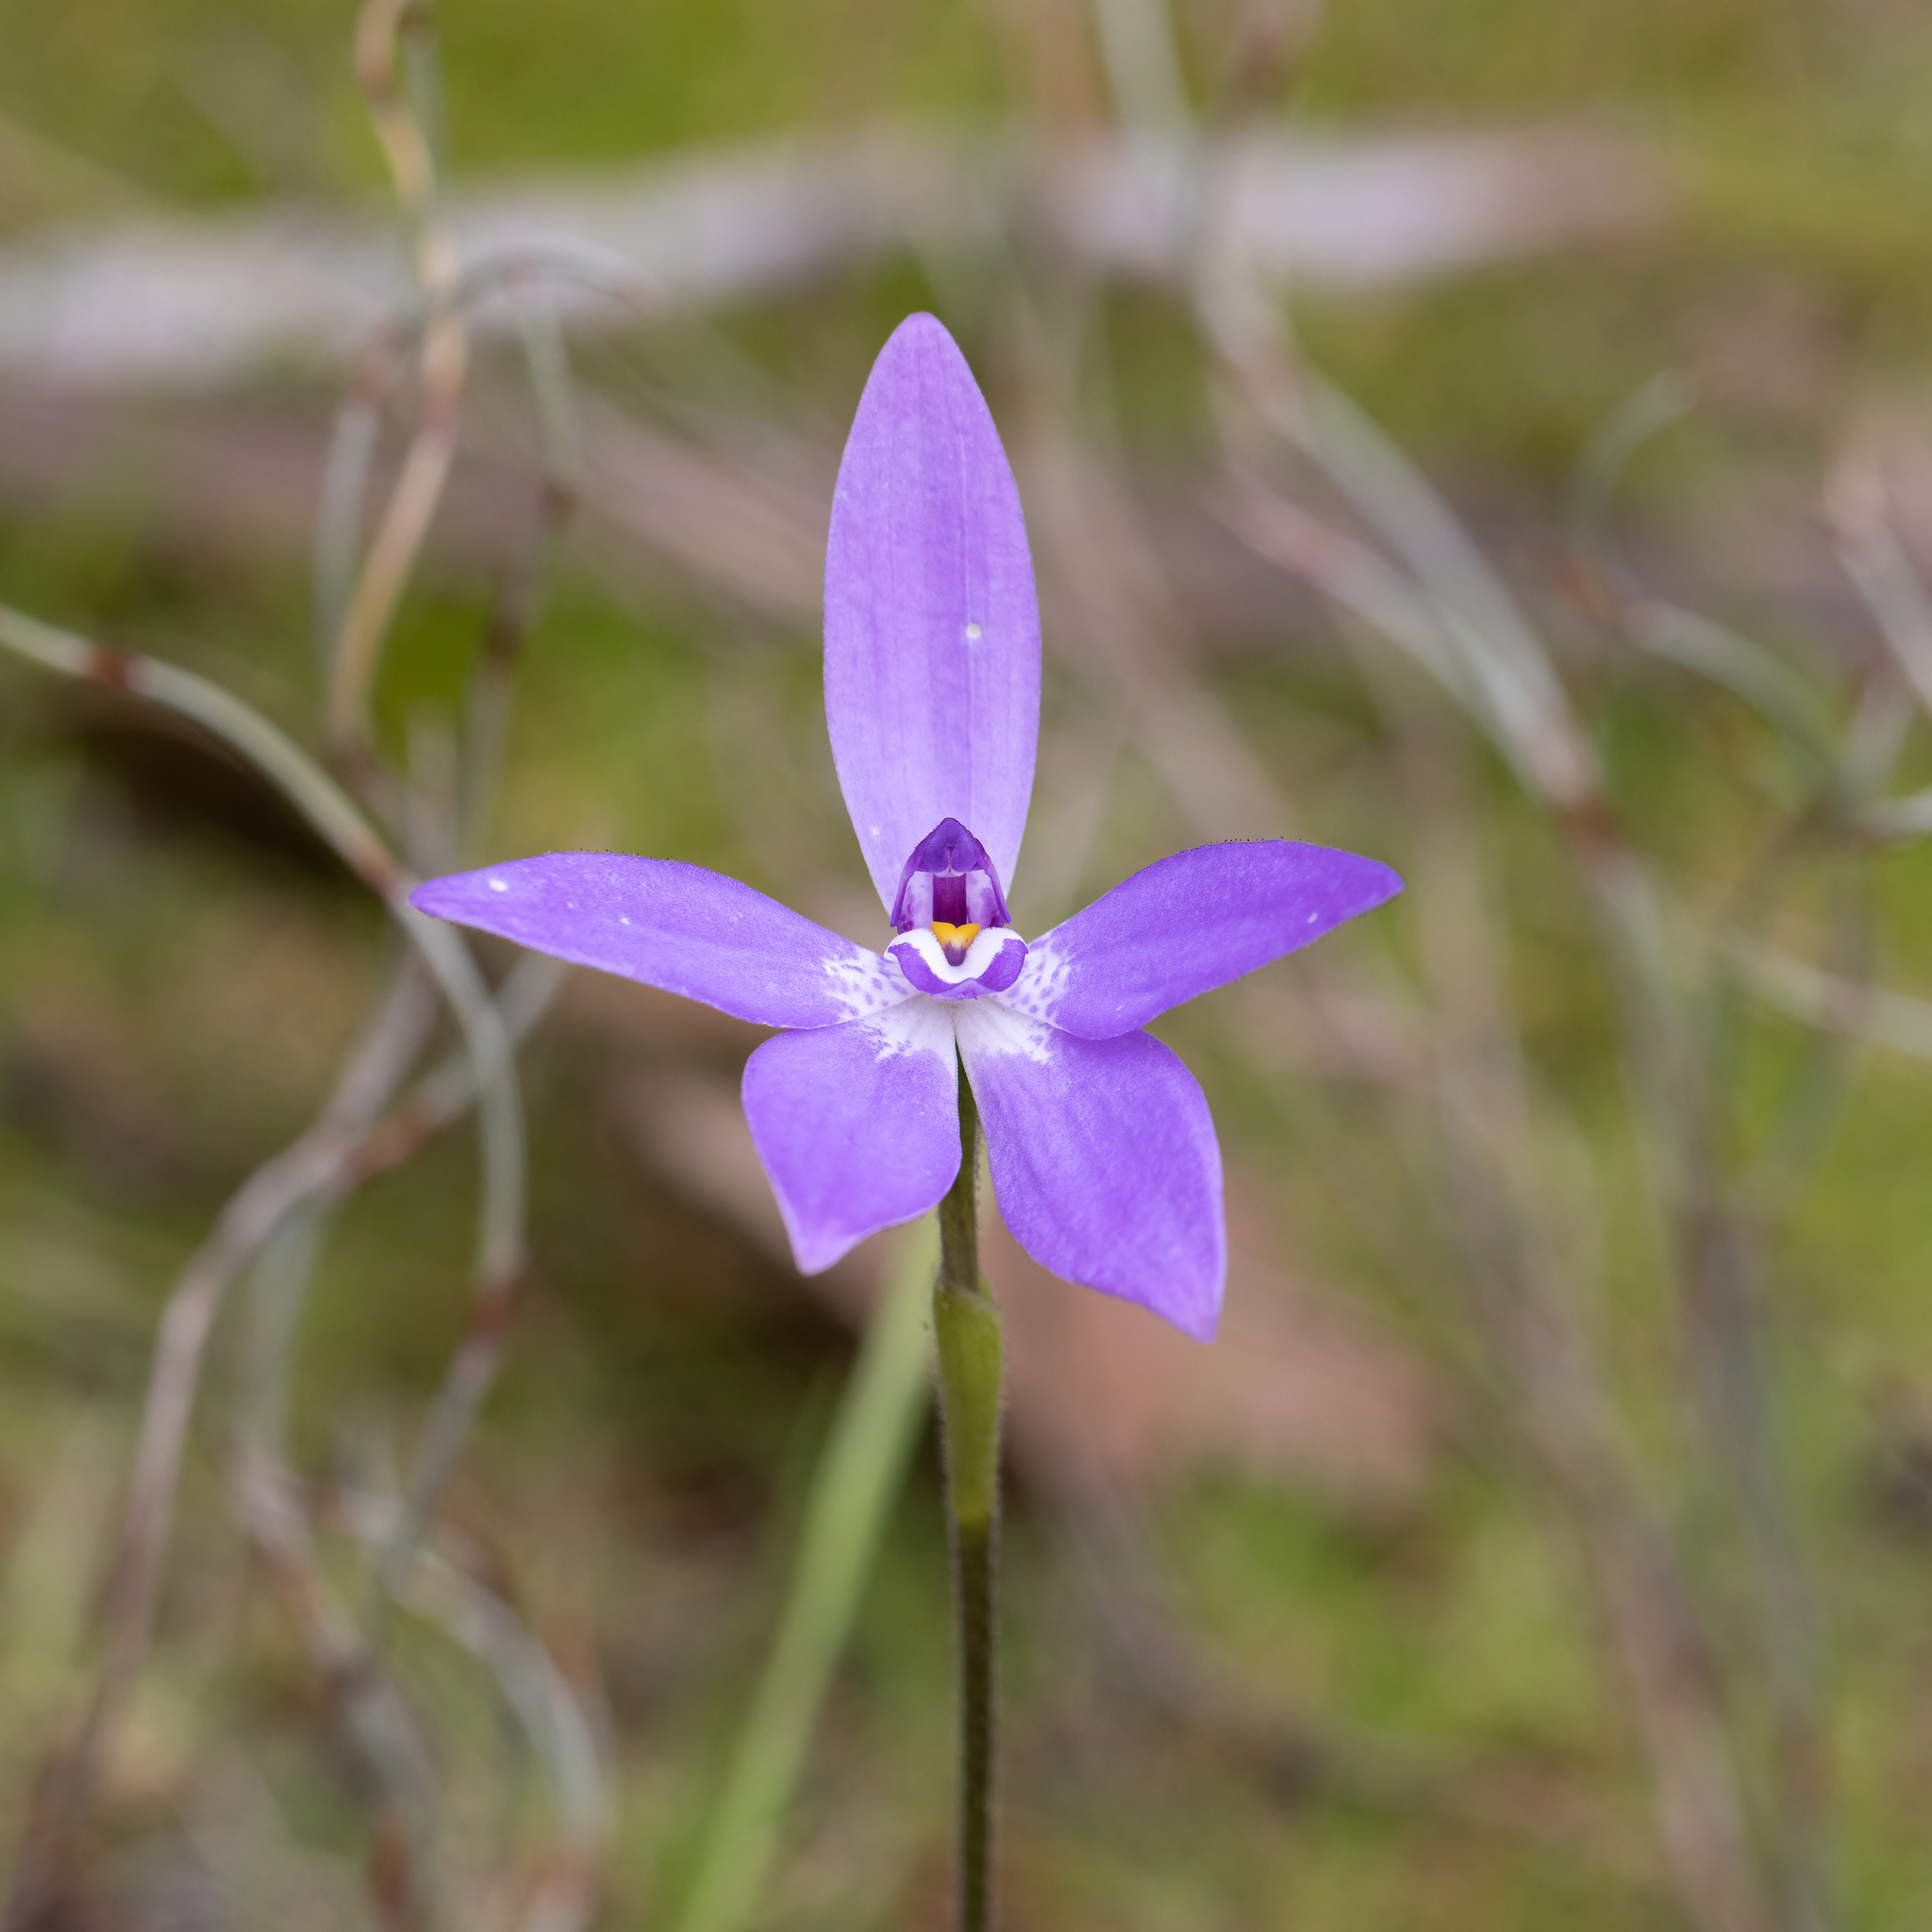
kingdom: Plantae
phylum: Tracheophyta
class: Liliopsida
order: Asparagales
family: Orchidaceae
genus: Caladenia
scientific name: Caladenia major
